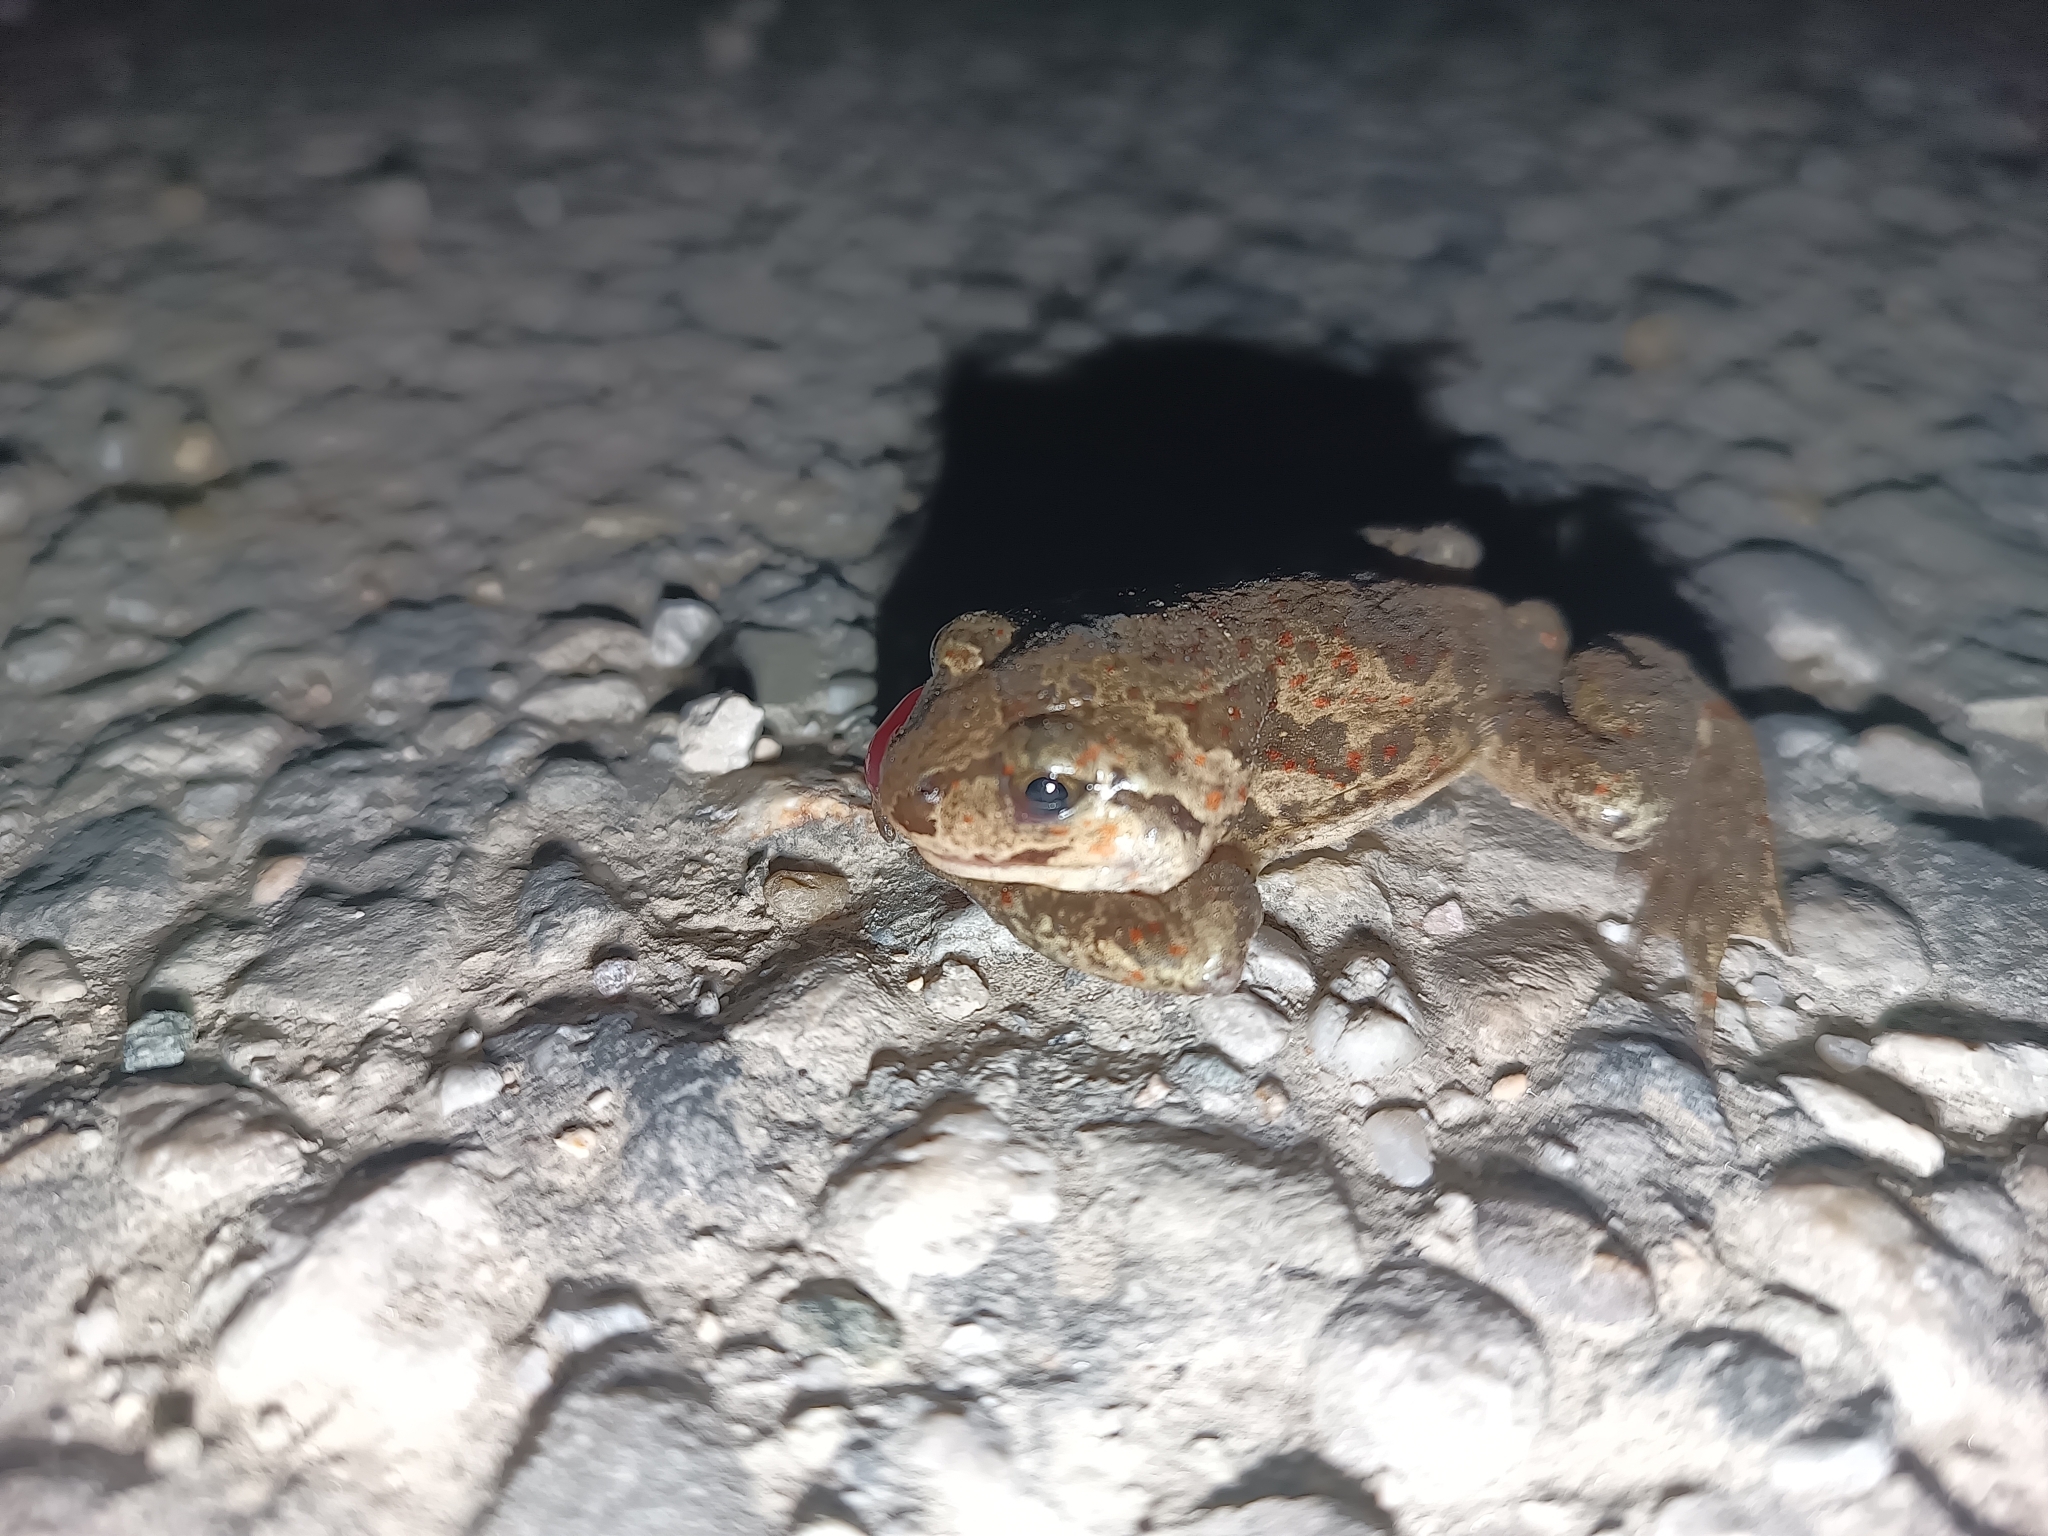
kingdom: Animalia
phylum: Chordata
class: Amphibia
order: Anura
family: Pelobatidae
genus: Pelobates
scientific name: Pelobates fuscus
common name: Common eurasian spadefoot toad
